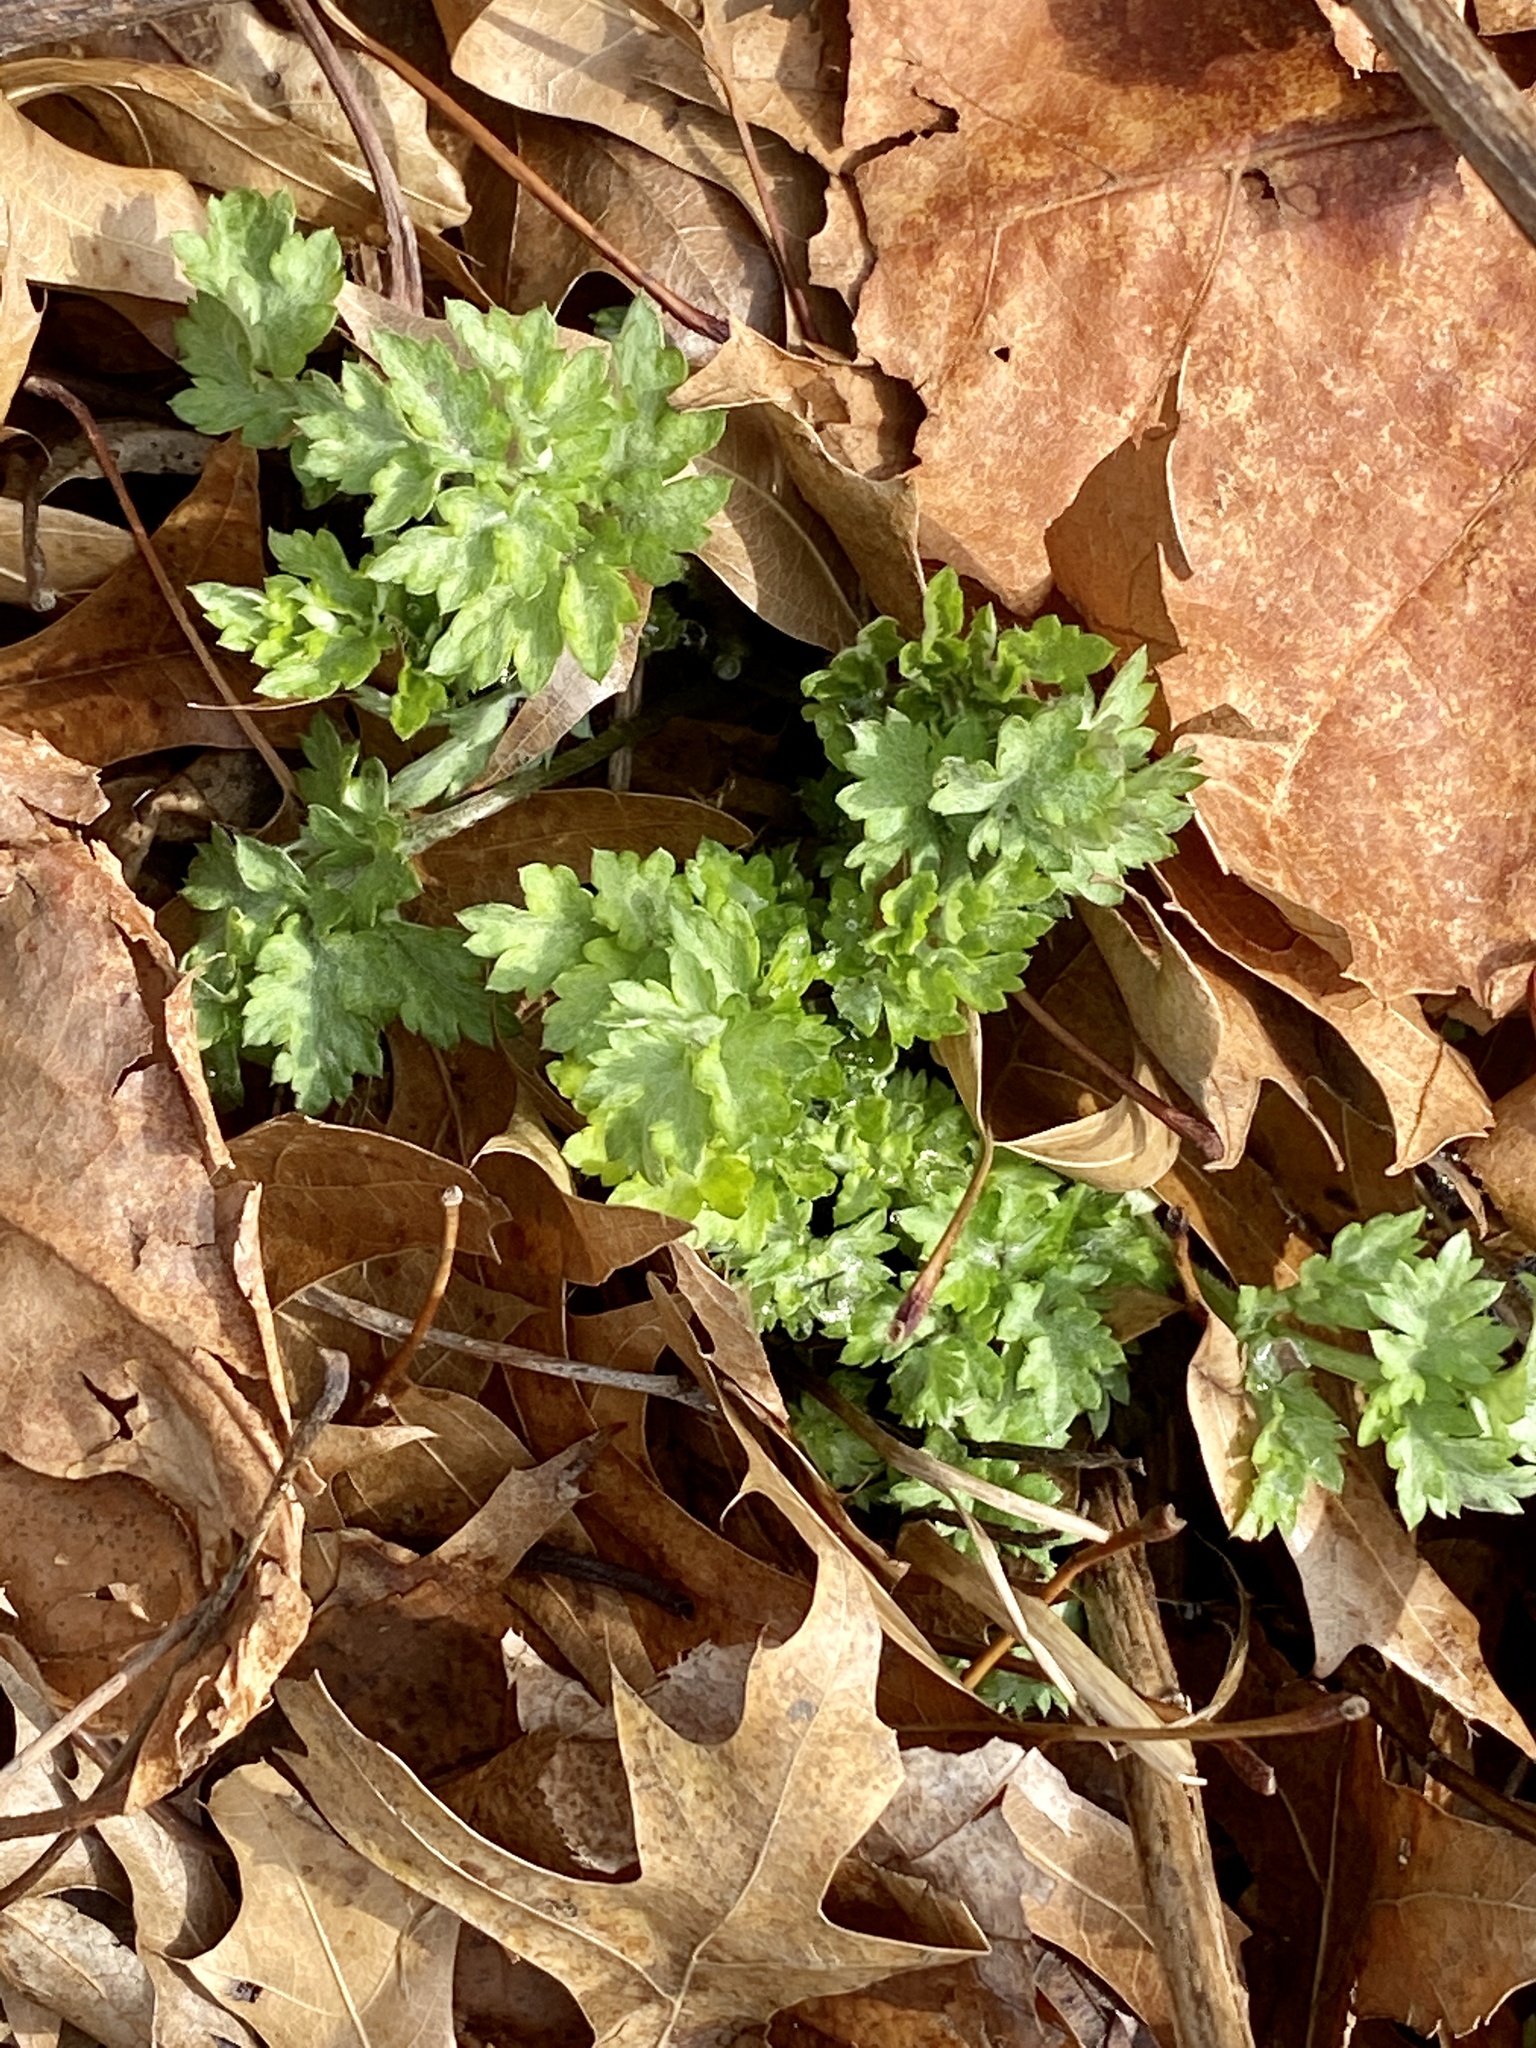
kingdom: Plantae
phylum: Tracheophyta
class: Magnoliopsida
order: Asterales
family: Asteraceae
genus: Artemisia
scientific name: Artemisia vulgaris
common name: Mugwort
